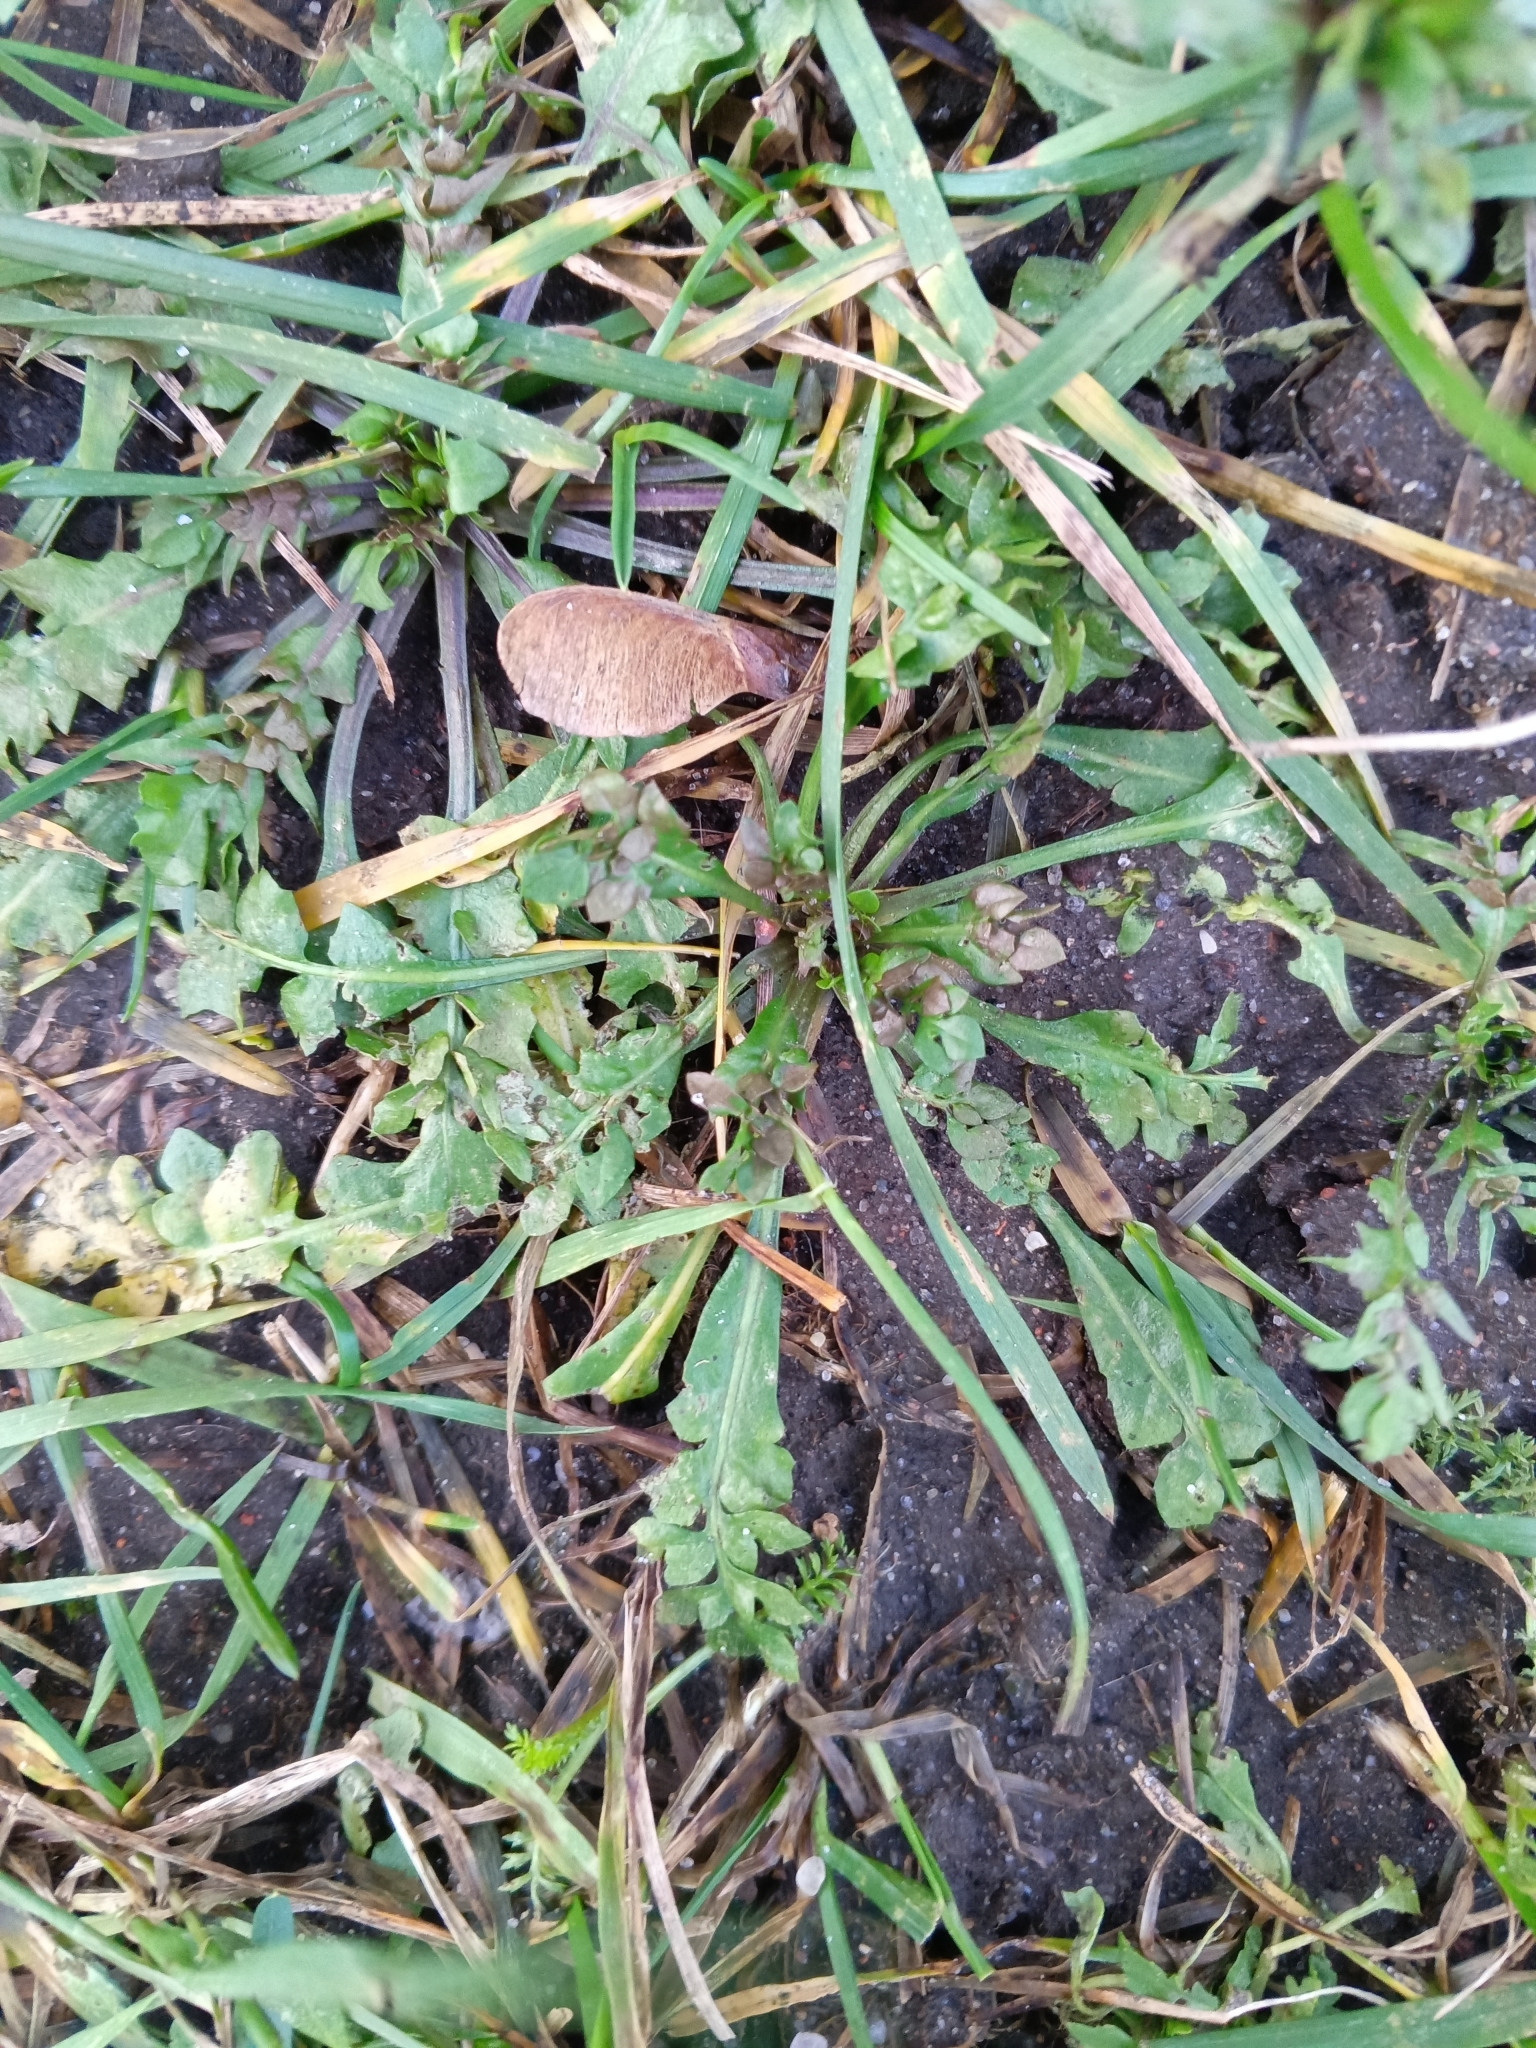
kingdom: Plantae
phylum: Tracheophyta
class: Magnoliopsida
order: Brassicales
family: Brassicaceae
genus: Capsella
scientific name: Capsella bursa-pastoris
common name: Shepherd's purse
